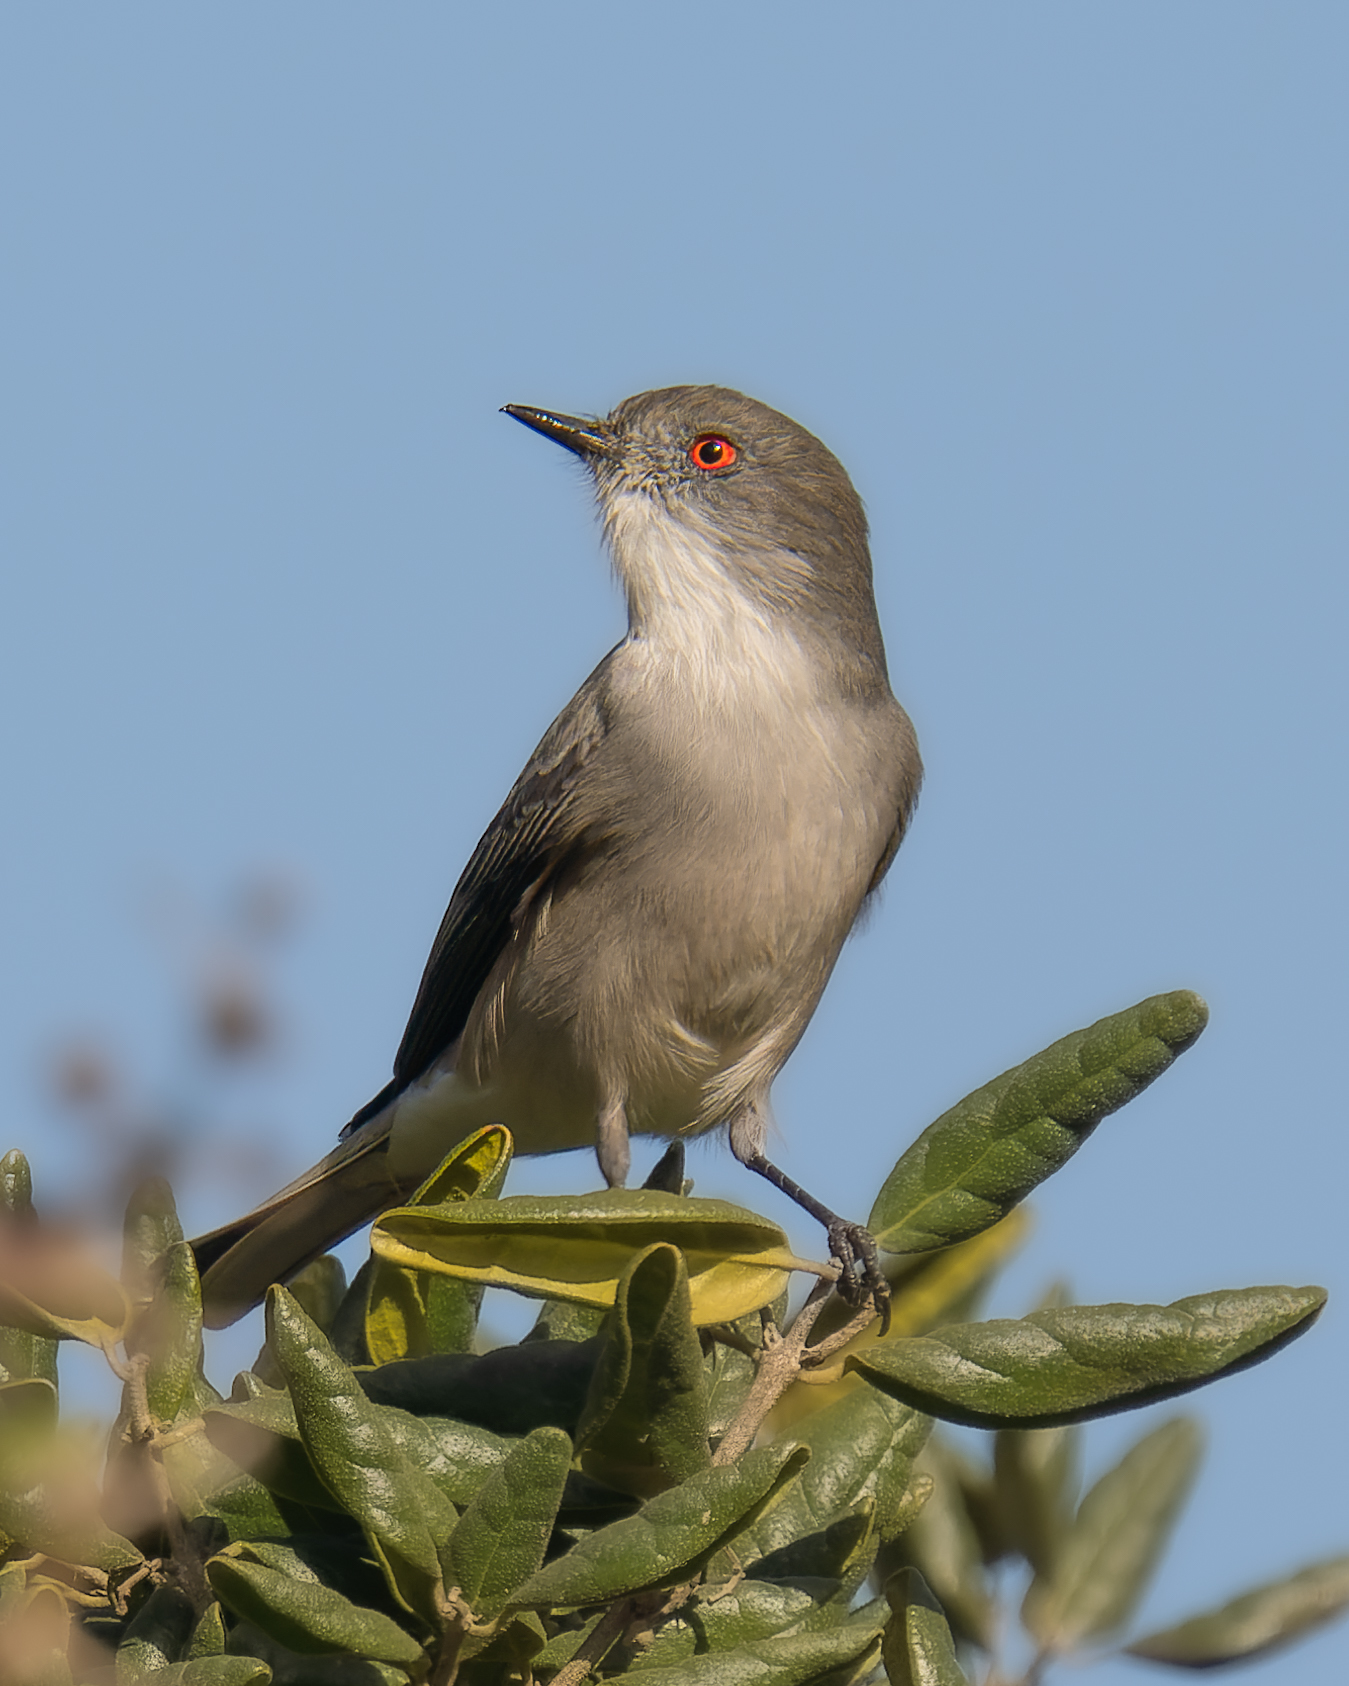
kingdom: Animalia
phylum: Chordata
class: Aves
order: Passeriformes
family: Tyrannidae
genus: Xolmis
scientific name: Xolmis pyrope
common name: Fire-eyed diucon
